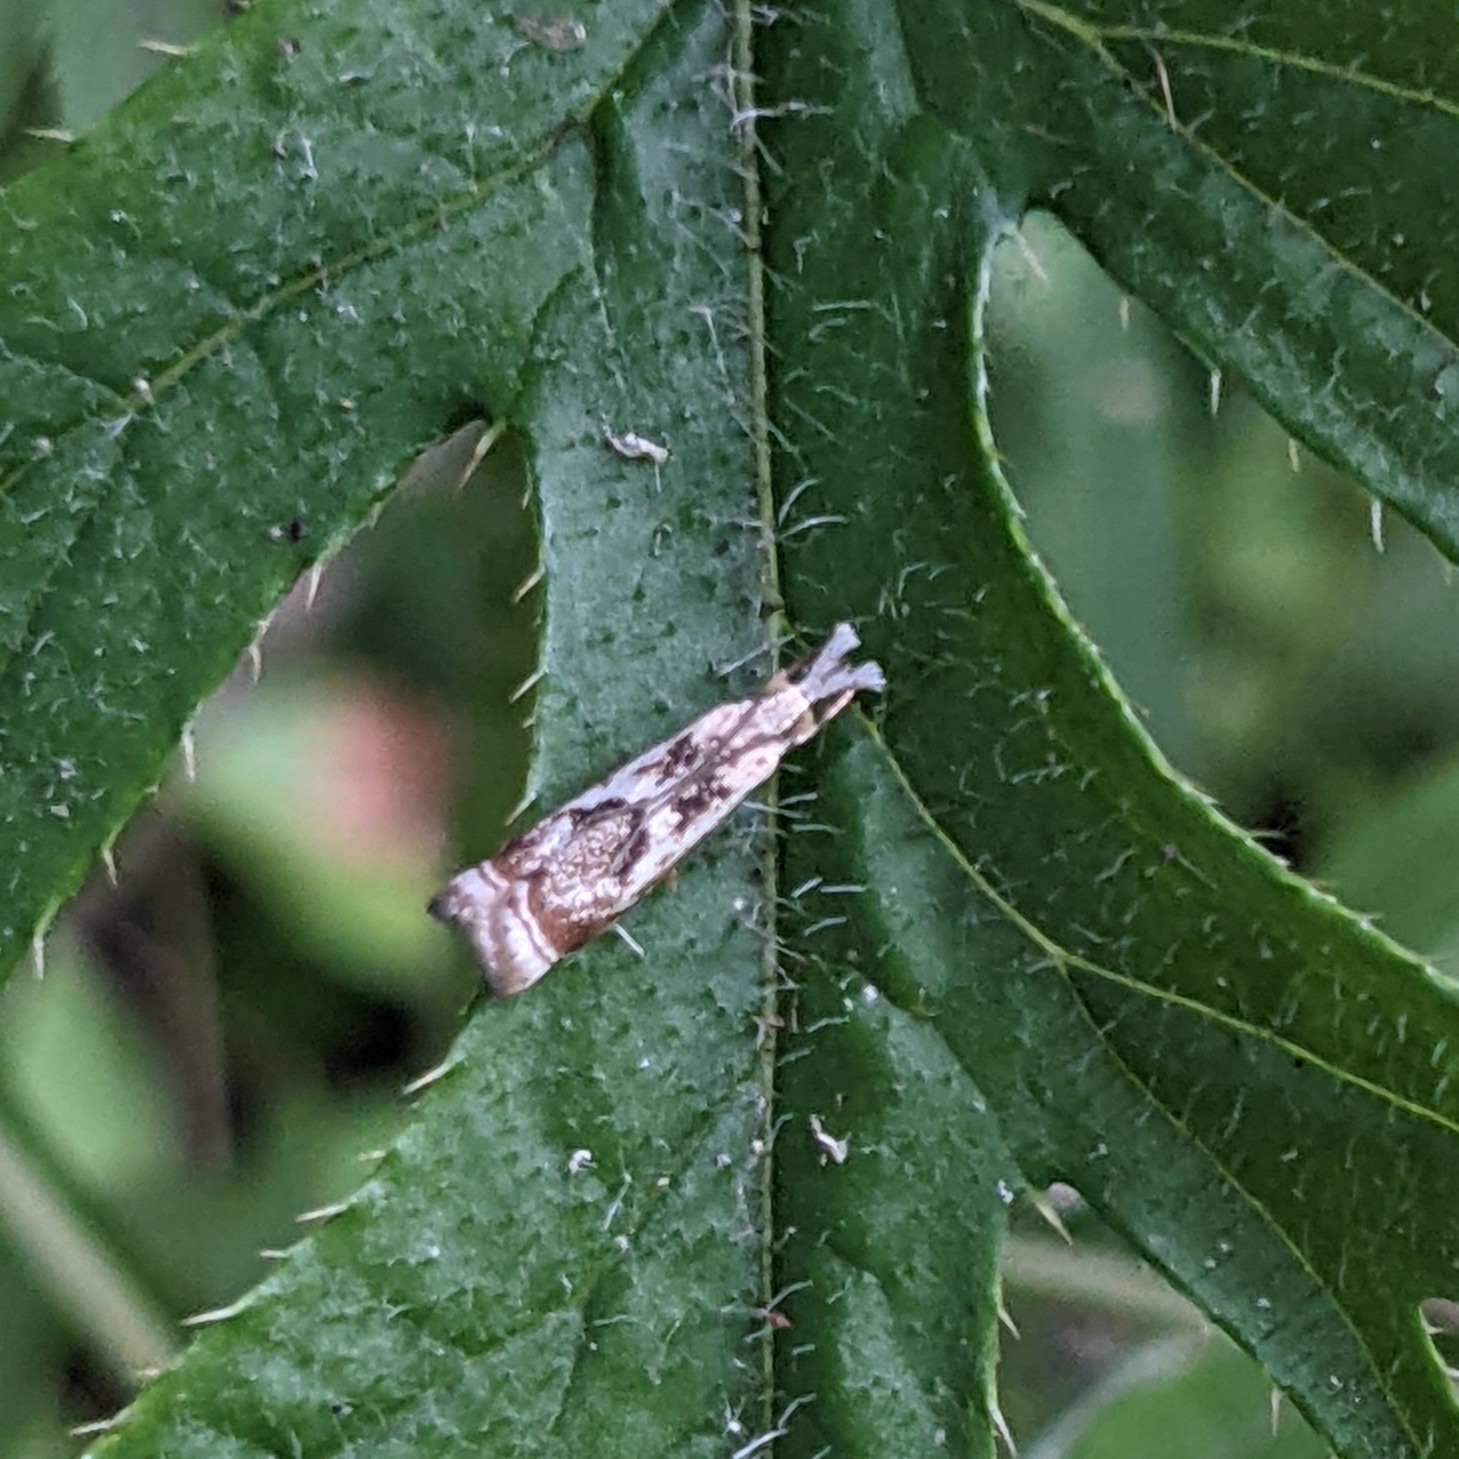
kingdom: Animalia
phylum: Arthropoda
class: Insecta
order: Lepidoptera
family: Crambidae
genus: Microcrambus
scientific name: Microcrambus elegans
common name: Elegant grass-veneer
